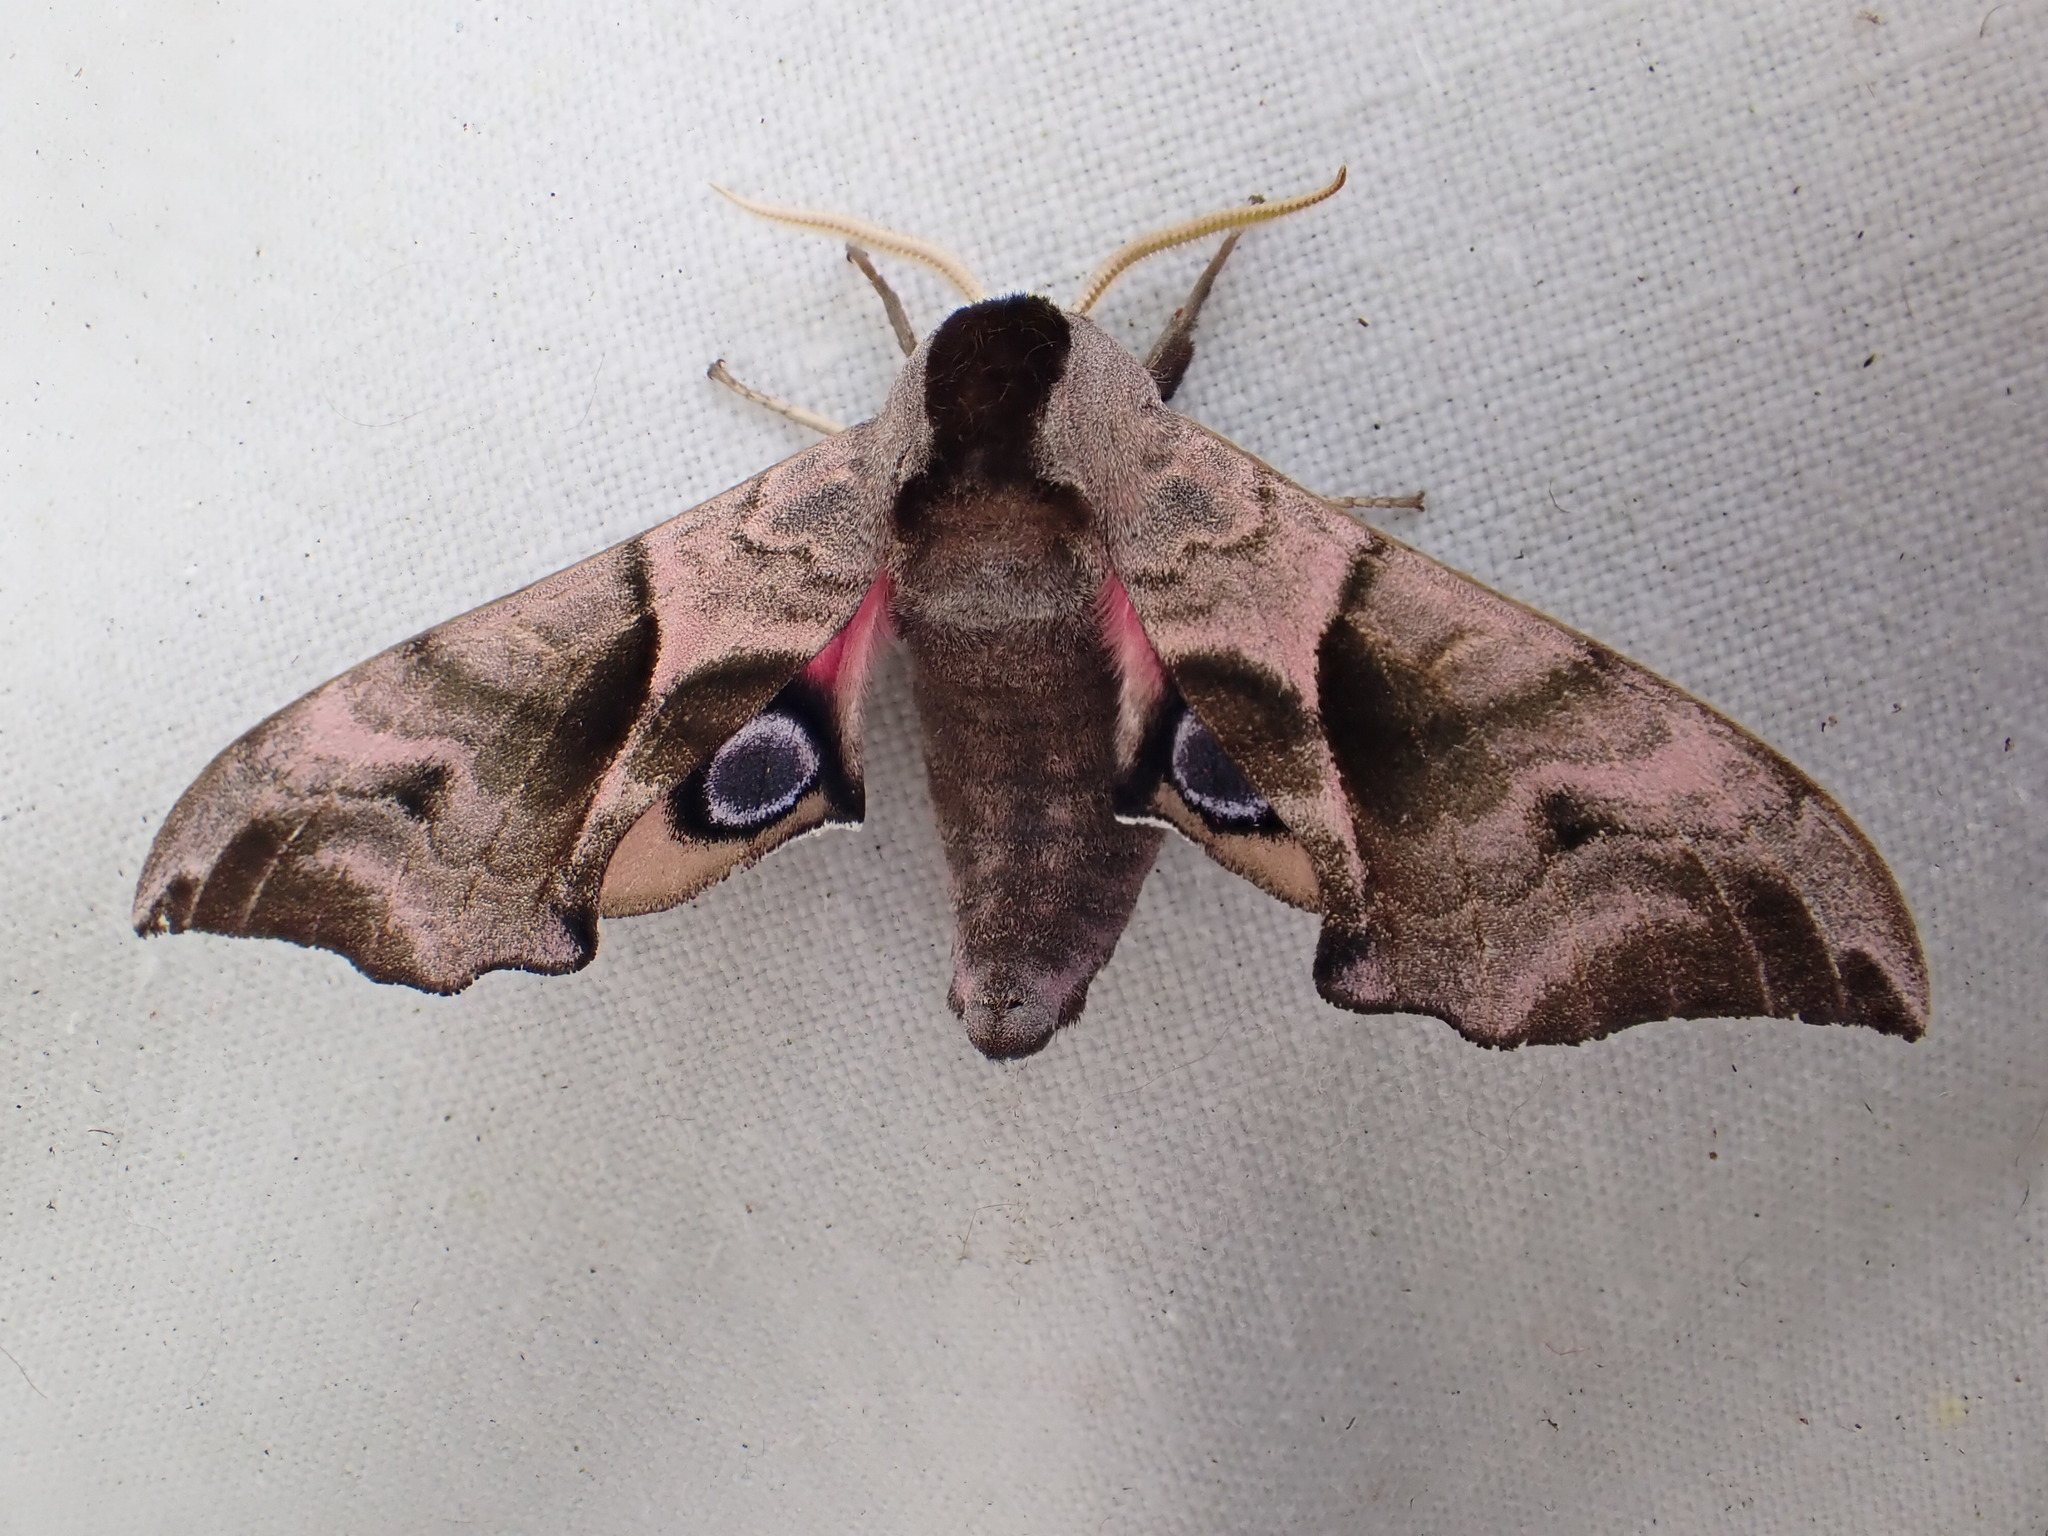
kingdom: Animalia
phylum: Arthropoda
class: Insecta
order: Lepidoptera
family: Sphingidae
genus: Smerinthus
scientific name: Smerinthus ocellata
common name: Eyed hawk-moth
